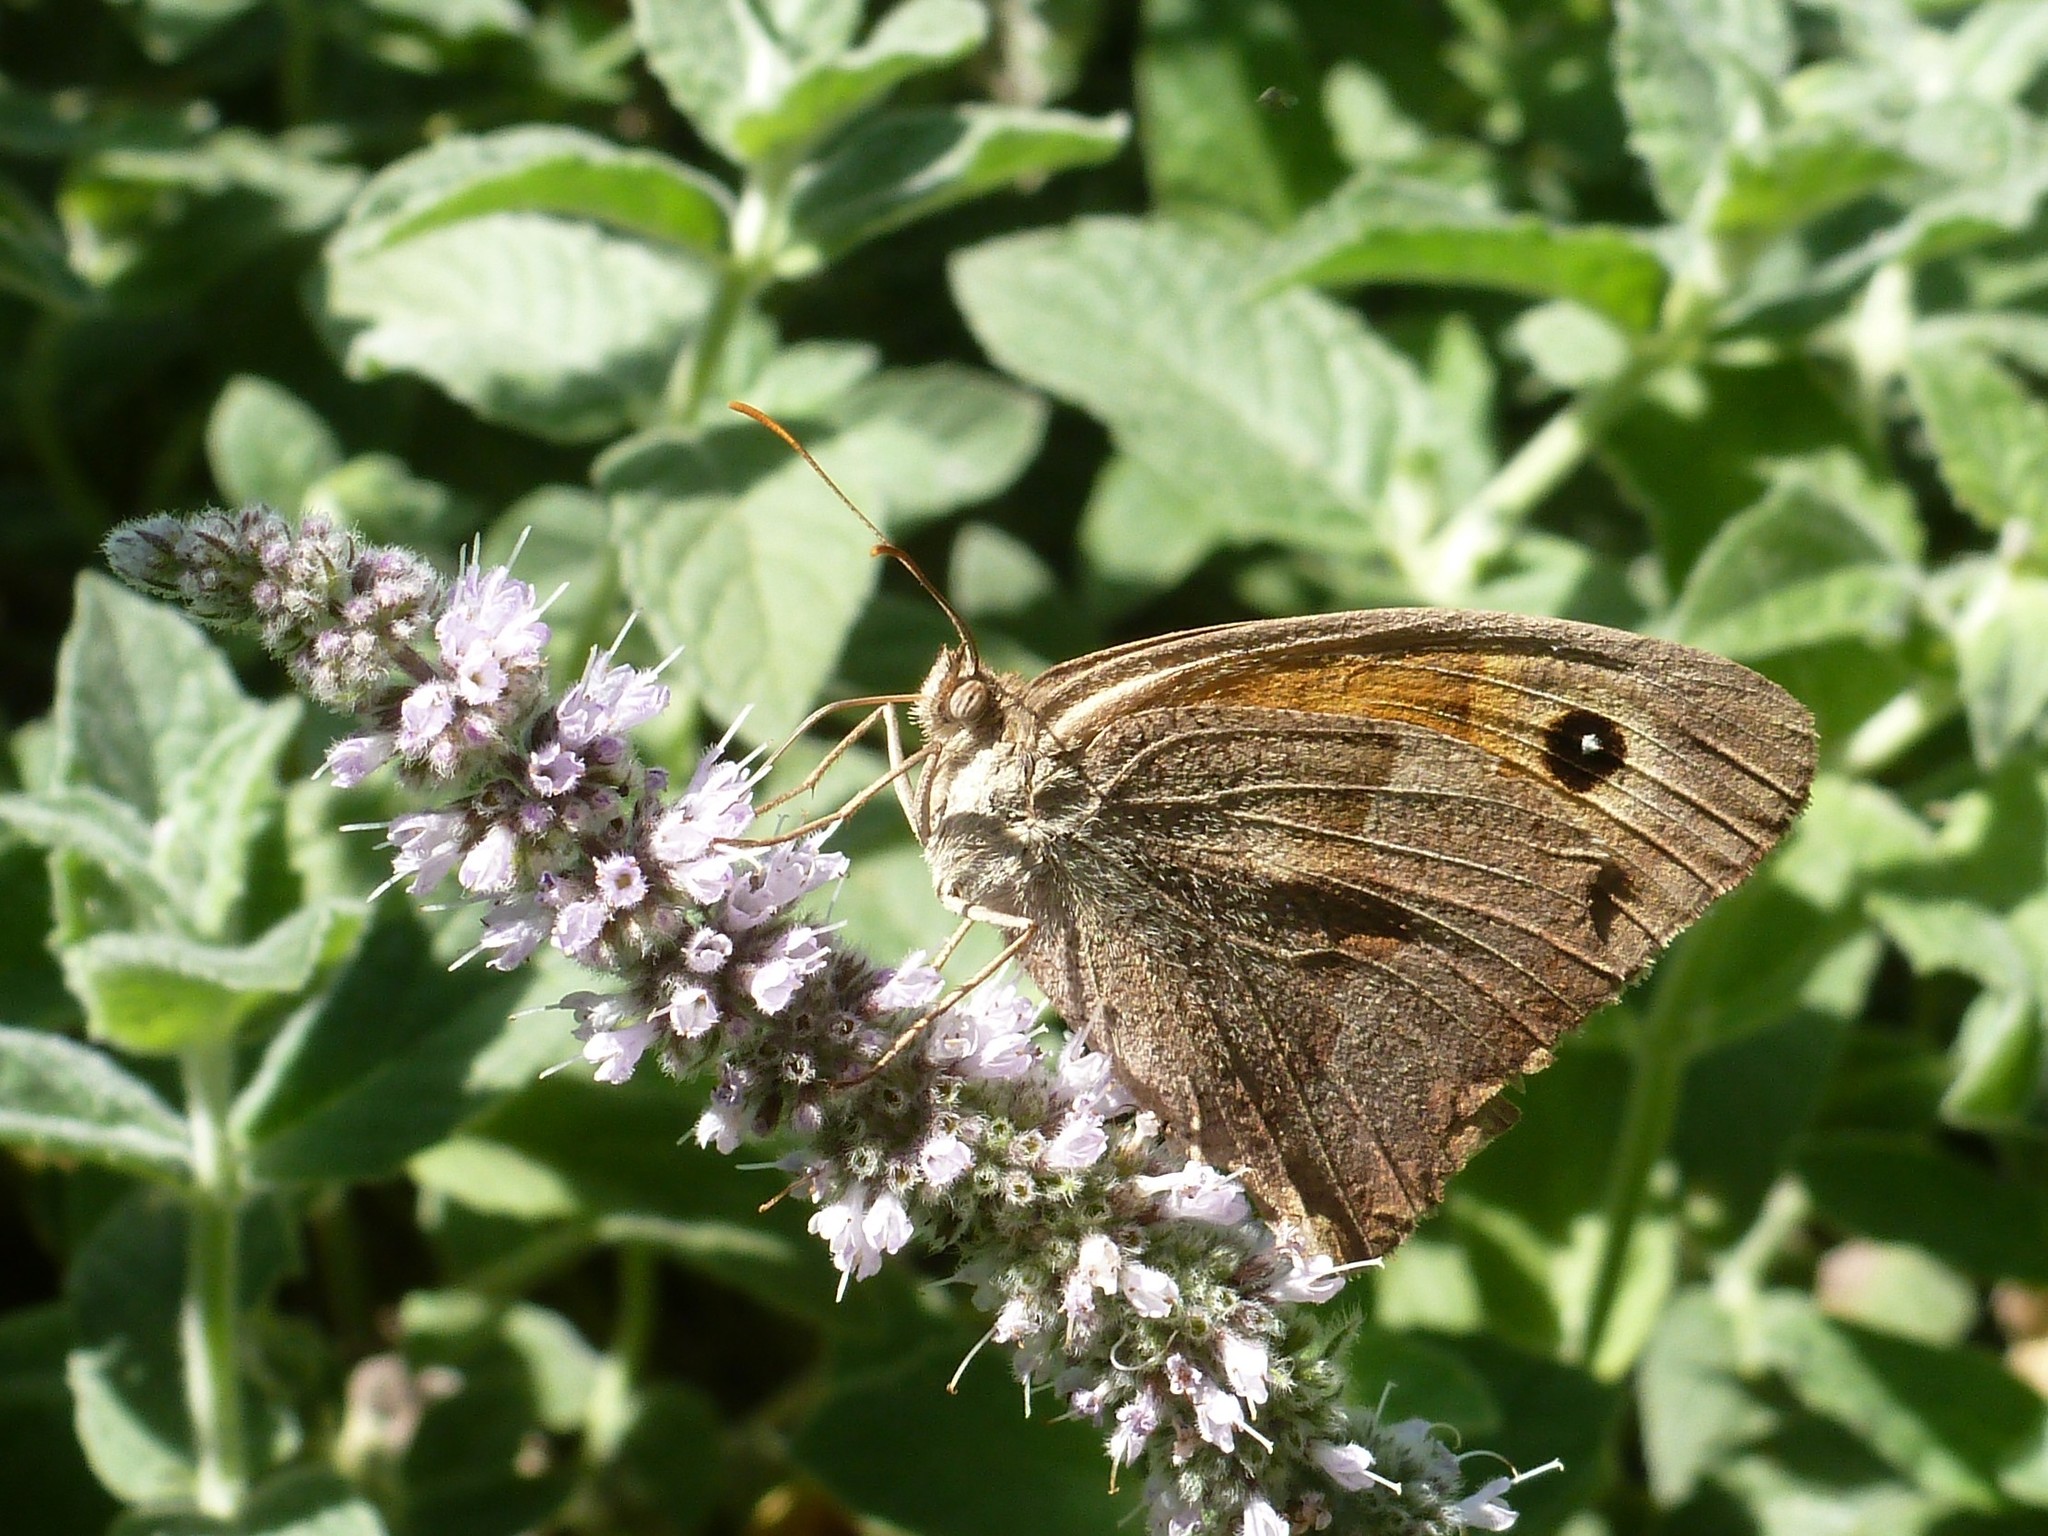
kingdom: Animalia
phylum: Arthropoda
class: Insecta
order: Lepidoptera
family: Nymphalidae
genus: Maniola
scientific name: Maniola jurtina
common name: Meadow brown
